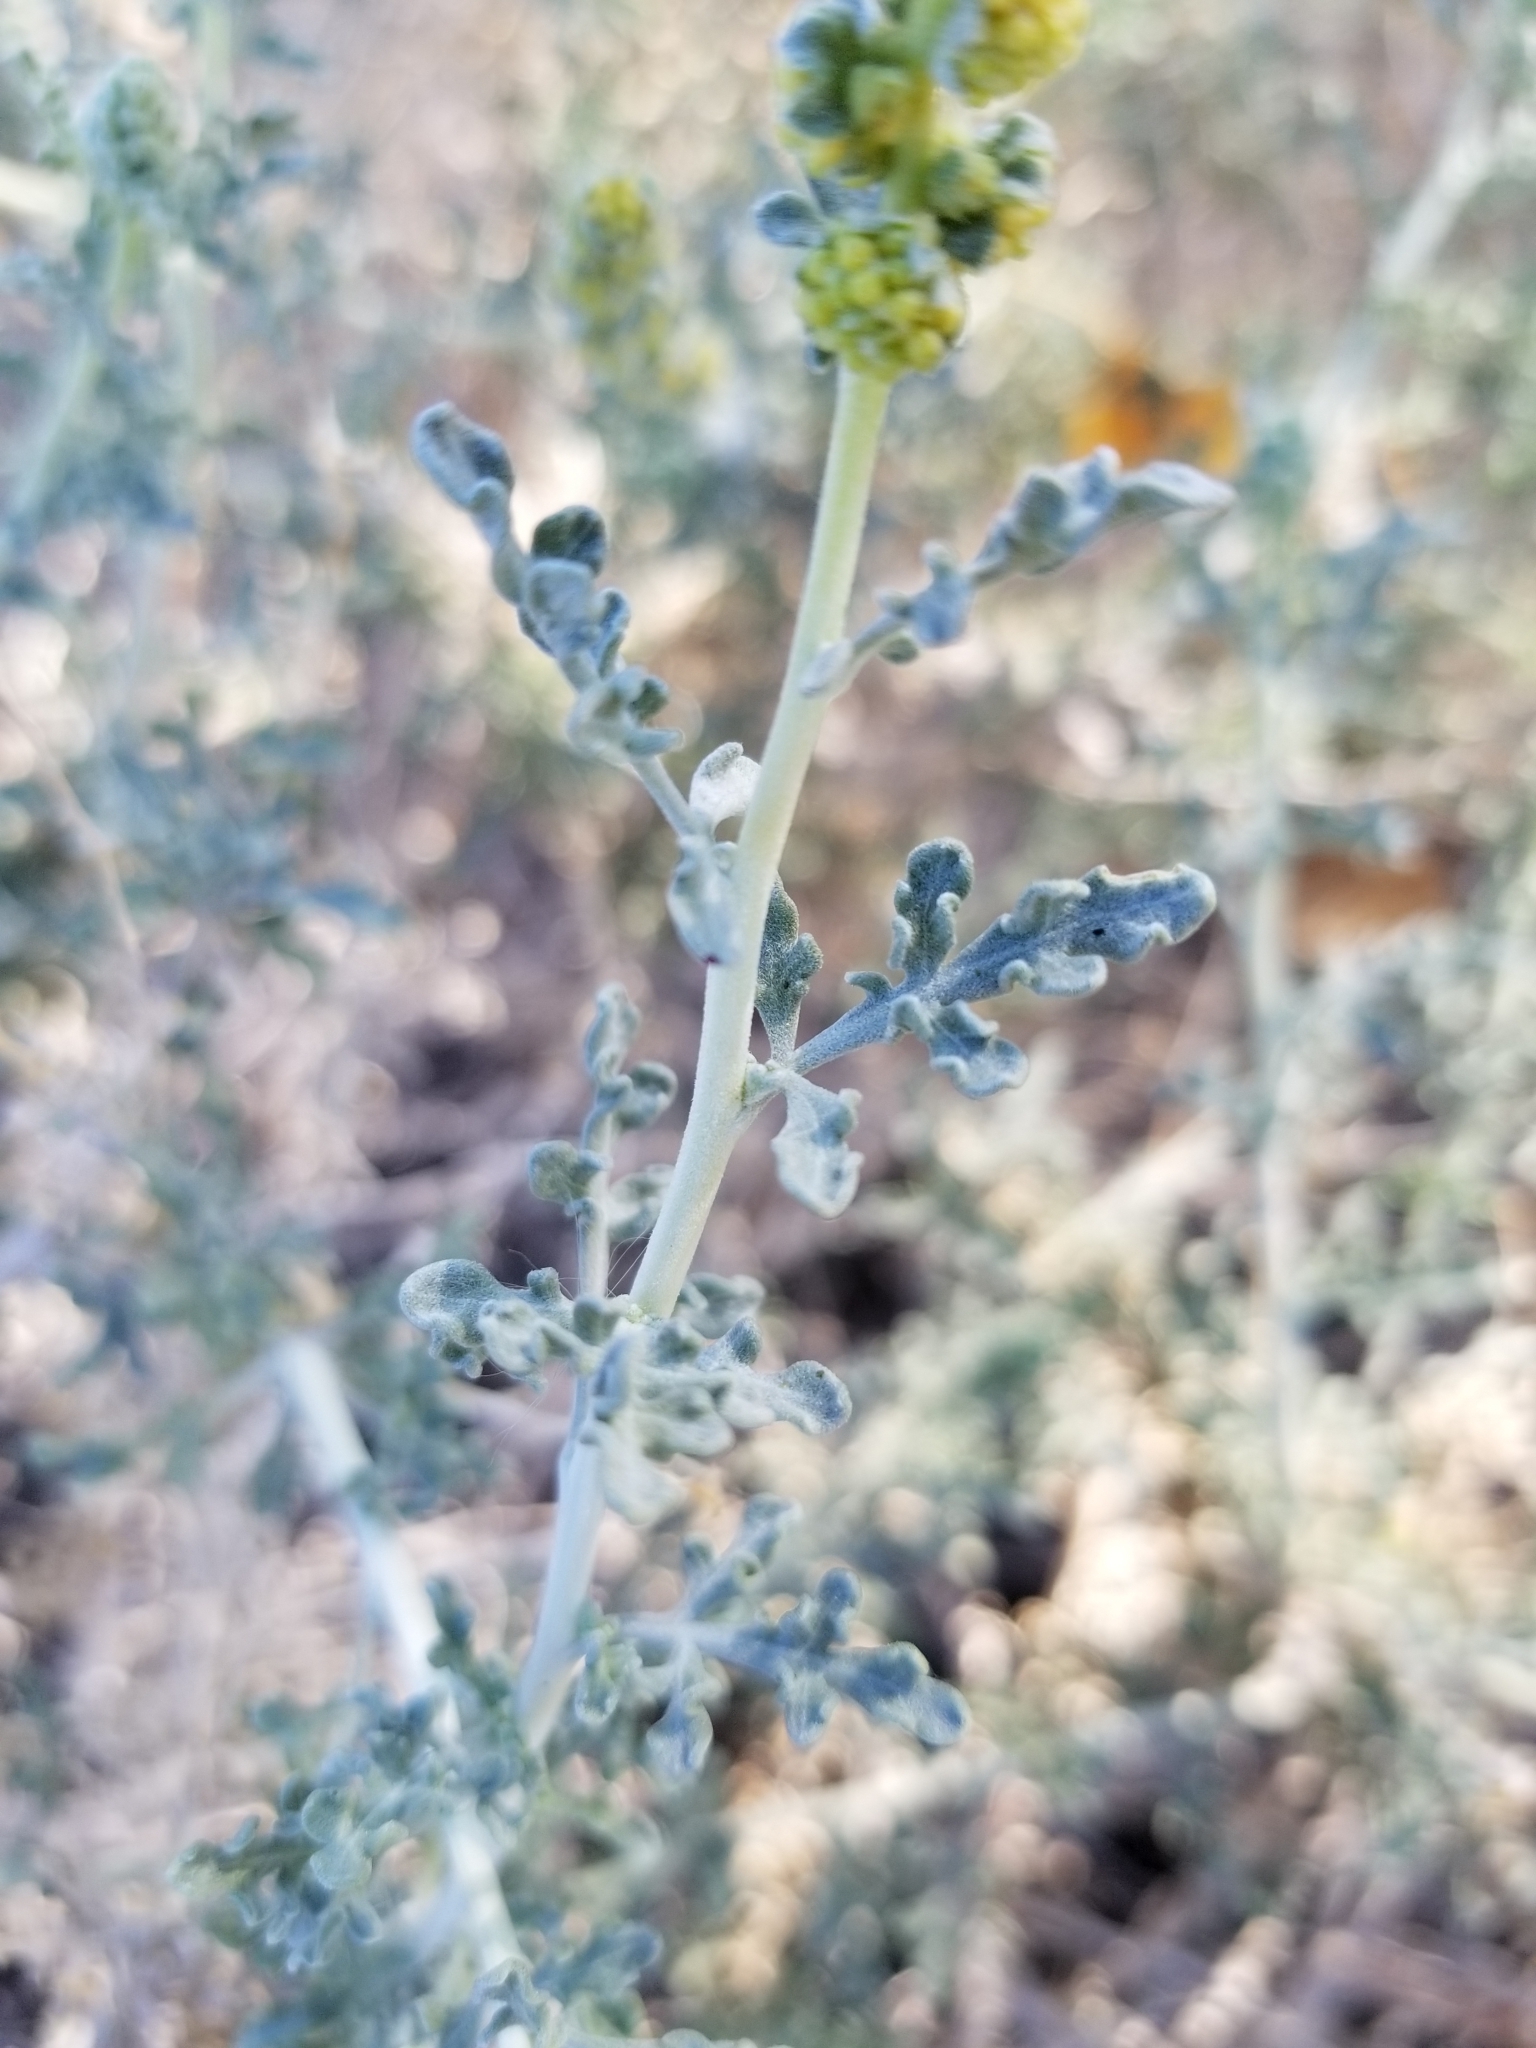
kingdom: Plantae
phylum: Tracheophyta
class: Magnoliopsida
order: Asterales
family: Asteraceae
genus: Ambrosia
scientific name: Ambrosia dumosa
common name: Bur-sage
